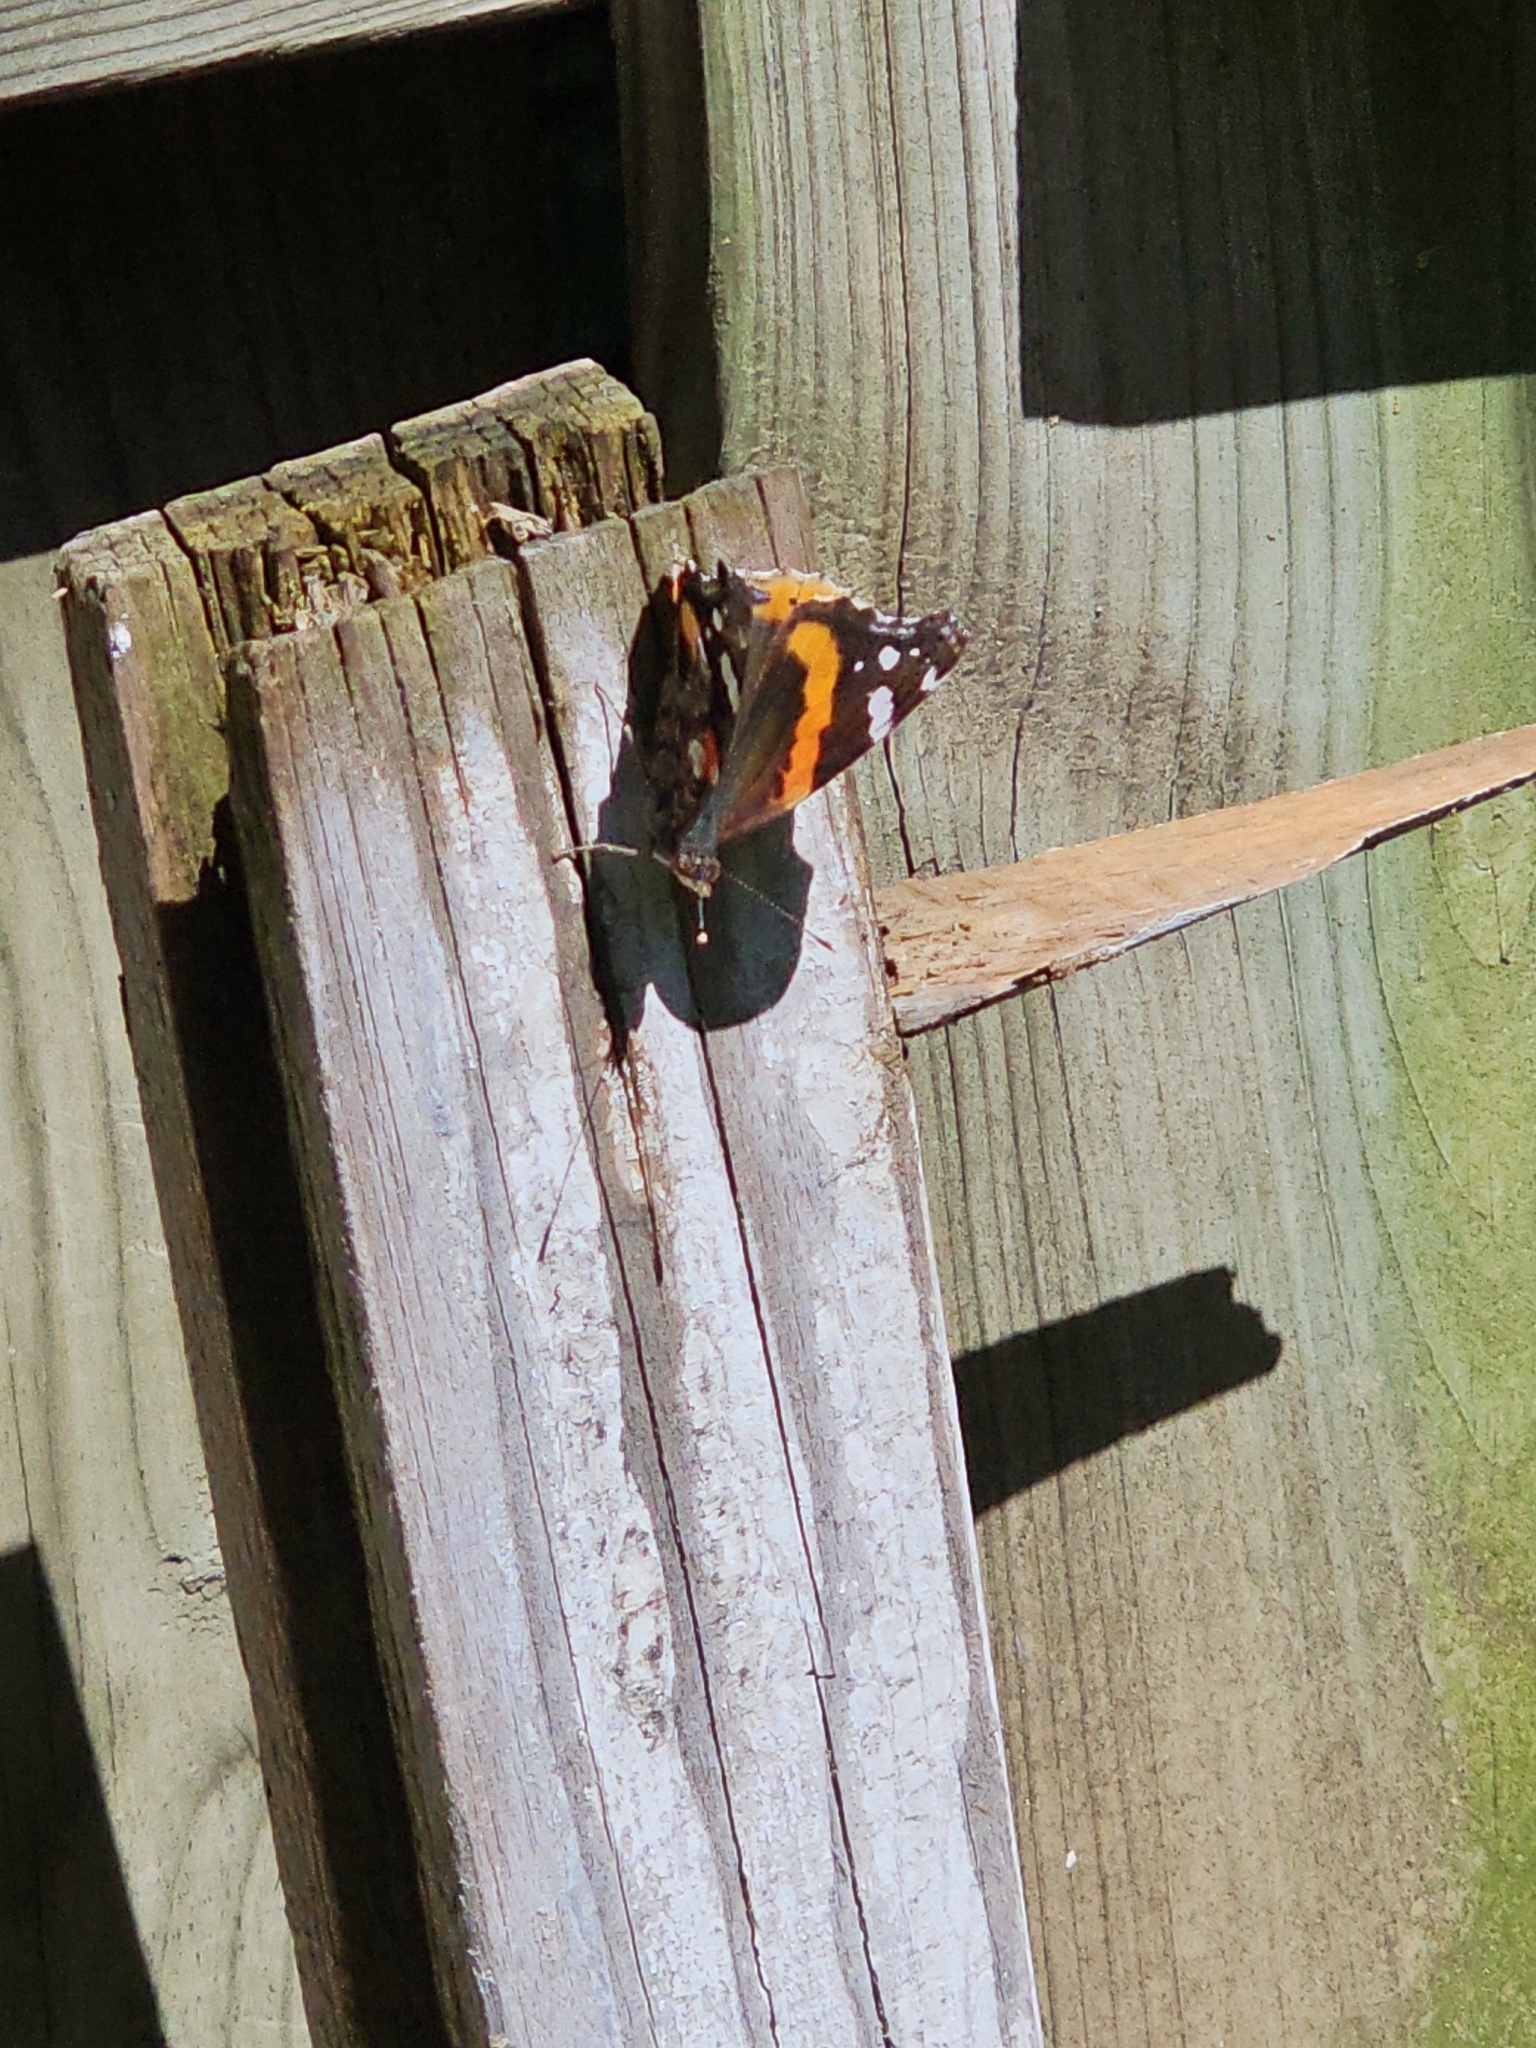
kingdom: Animalia
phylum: Arthropoda
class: Insecta
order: Lepidoptera
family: Nymphalidae
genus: Vanessa
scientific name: Vanessa atalanta
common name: Red admiral
